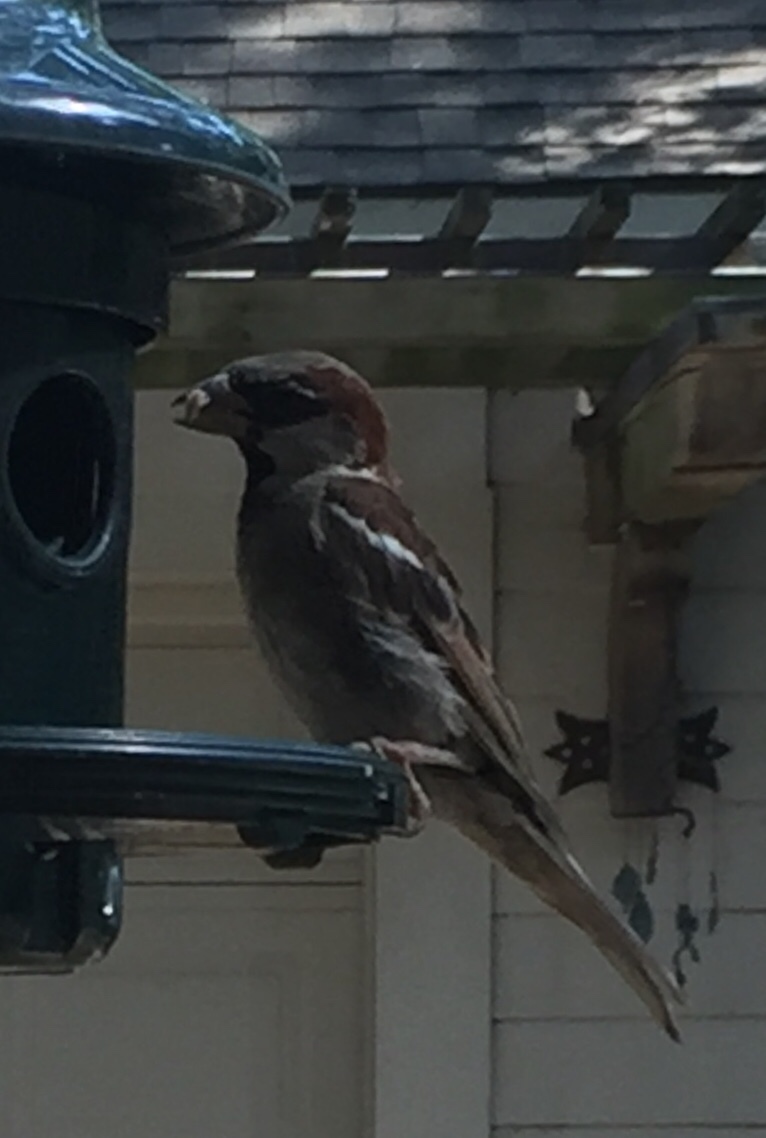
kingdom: Animalia
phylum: Chordata
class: Aves
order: Passeriformes
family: Passeridae
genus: Passer
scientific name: Passer domesticus
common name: House sparrow
